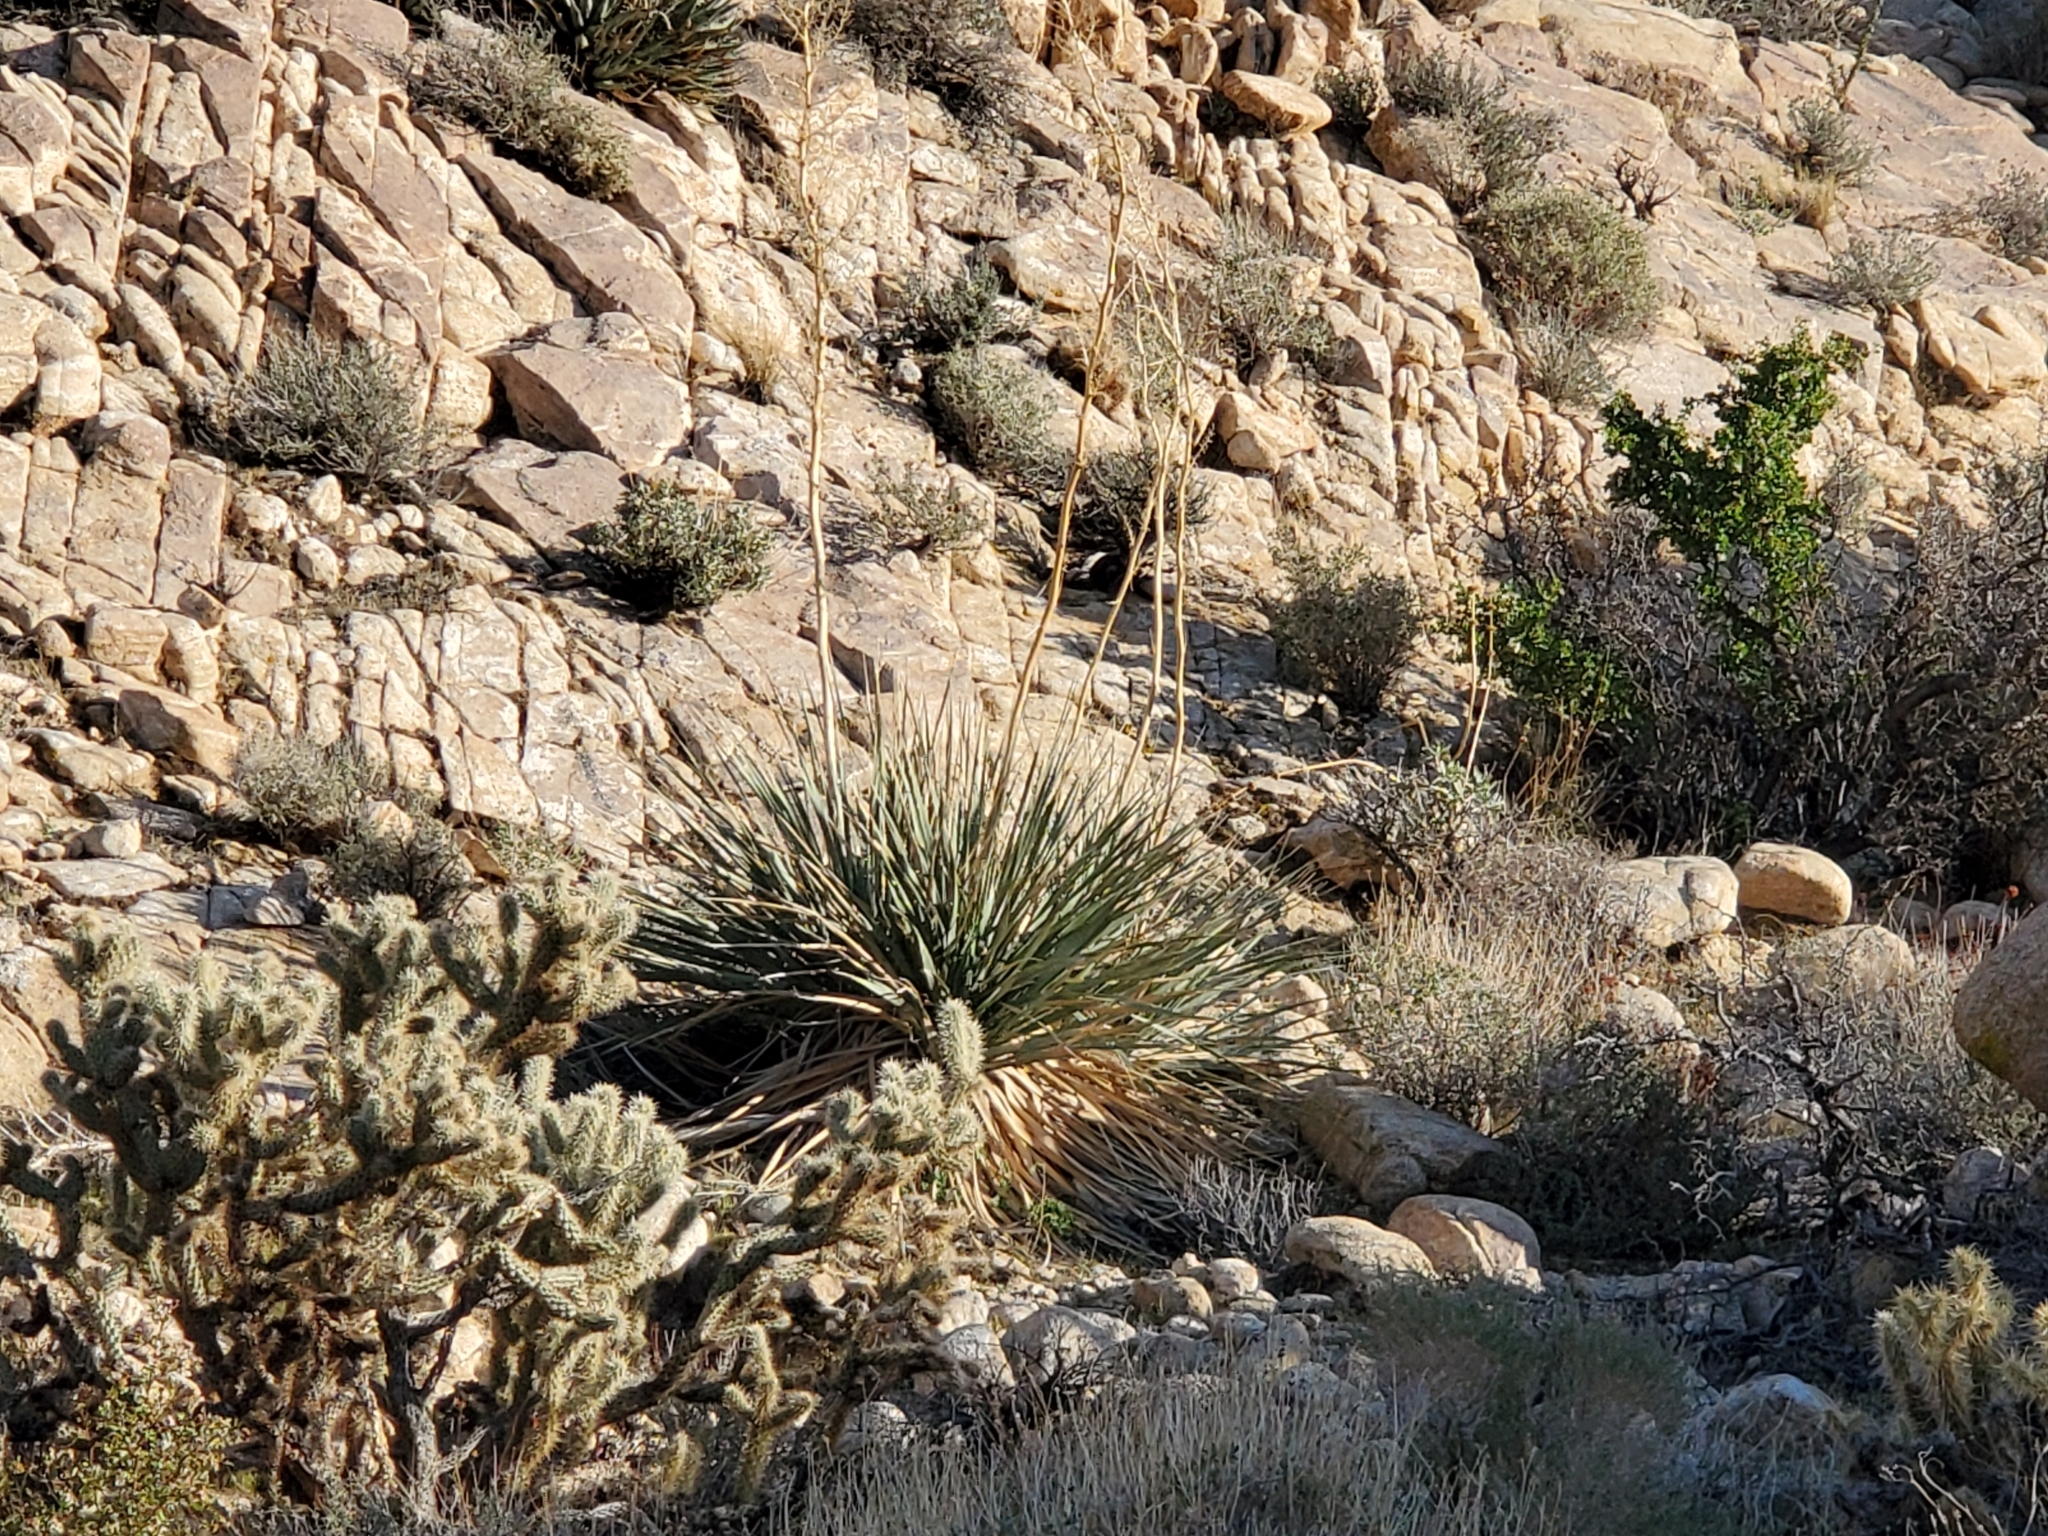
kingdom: Plantae
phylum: Tracheophyta
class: Liliopsida
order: Asparagales
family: Asparagaceae
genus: Nolina
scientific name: Nolina bigelovii
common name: Bigelow bear-grass
